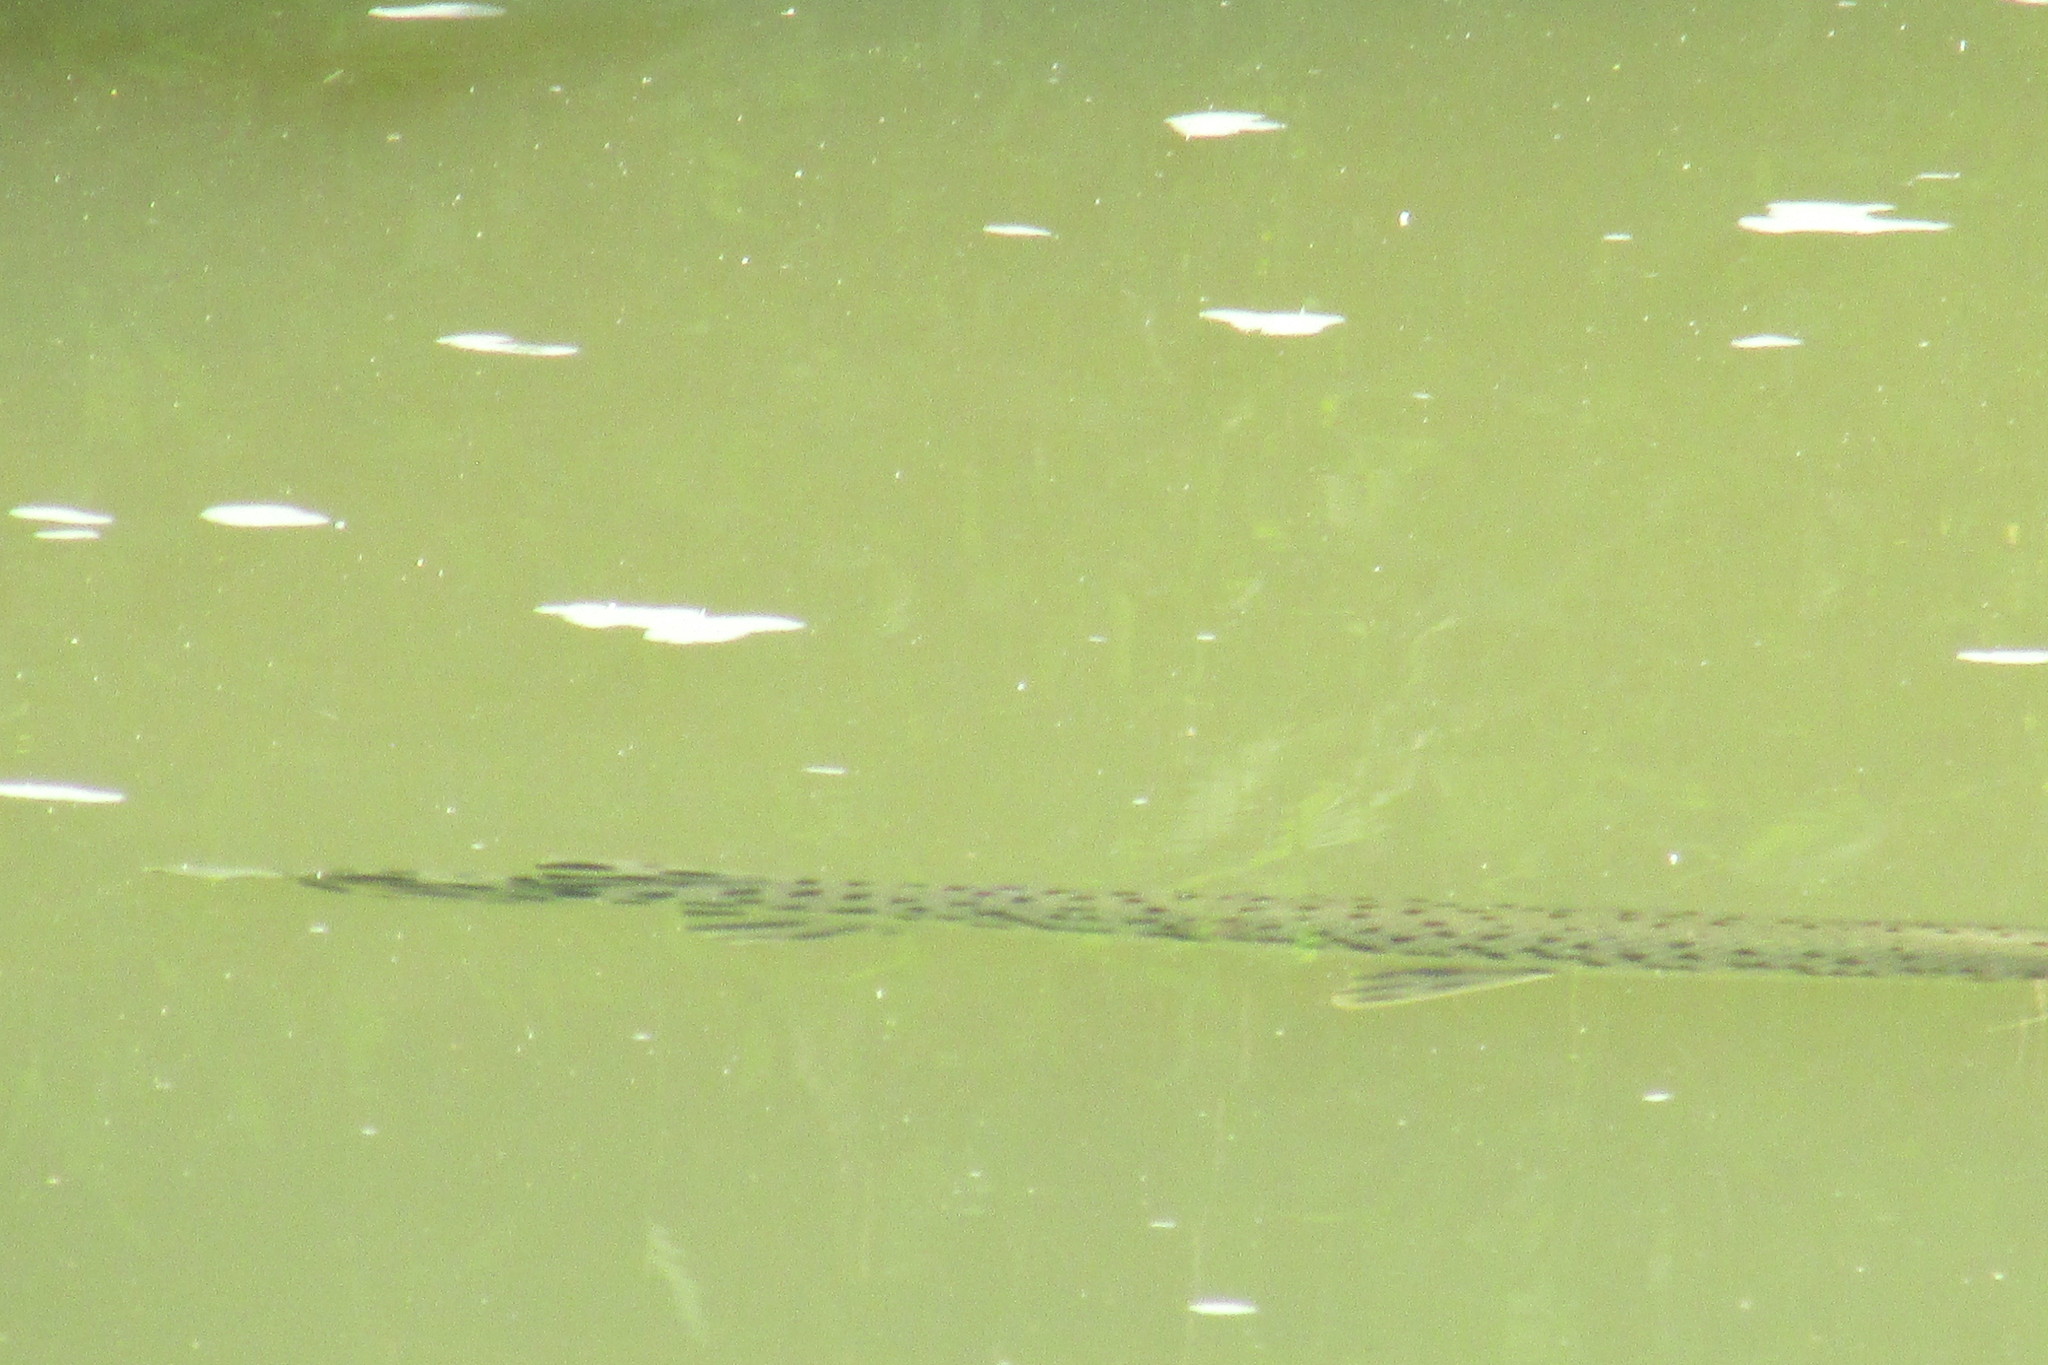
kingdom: Animalia
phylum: Chordata
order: Lepisosteiformes
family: Lepisosteidae
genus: Lepisosteus
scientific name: Lepisosteus osseus
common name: Longnose gar
